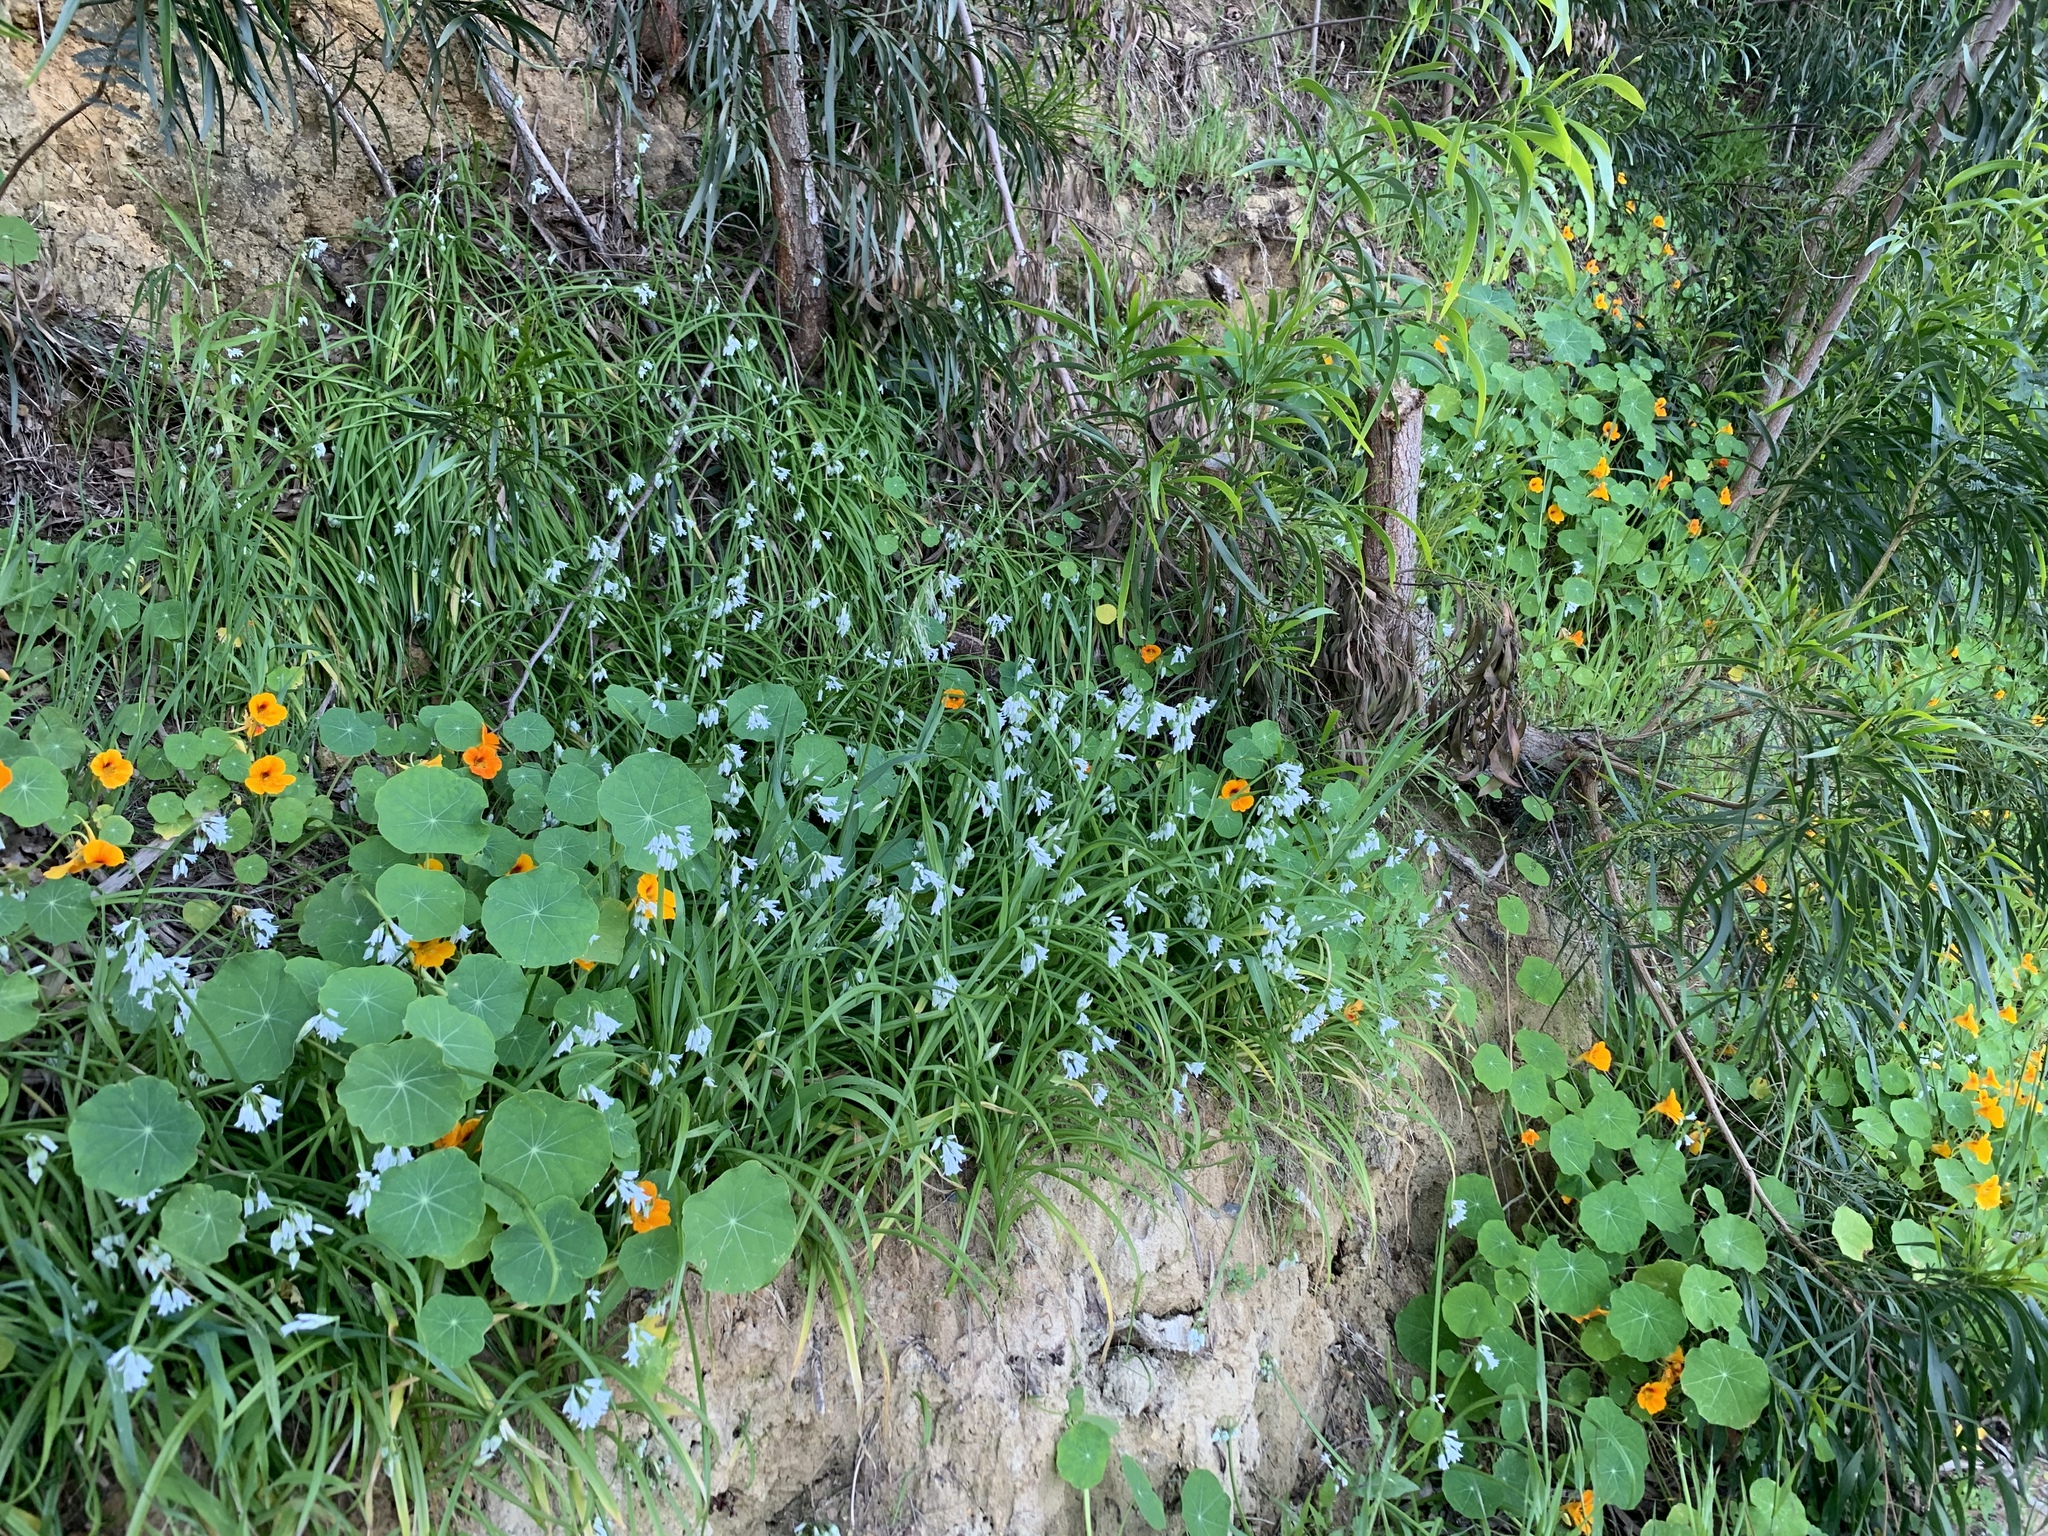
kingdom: Plantae
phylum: Tracheophyta
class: Liliopsida
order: Asparagales
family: Amaryllidaceae
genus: Allium
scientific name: Allium triquetrum
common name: Three-cornered garlic
